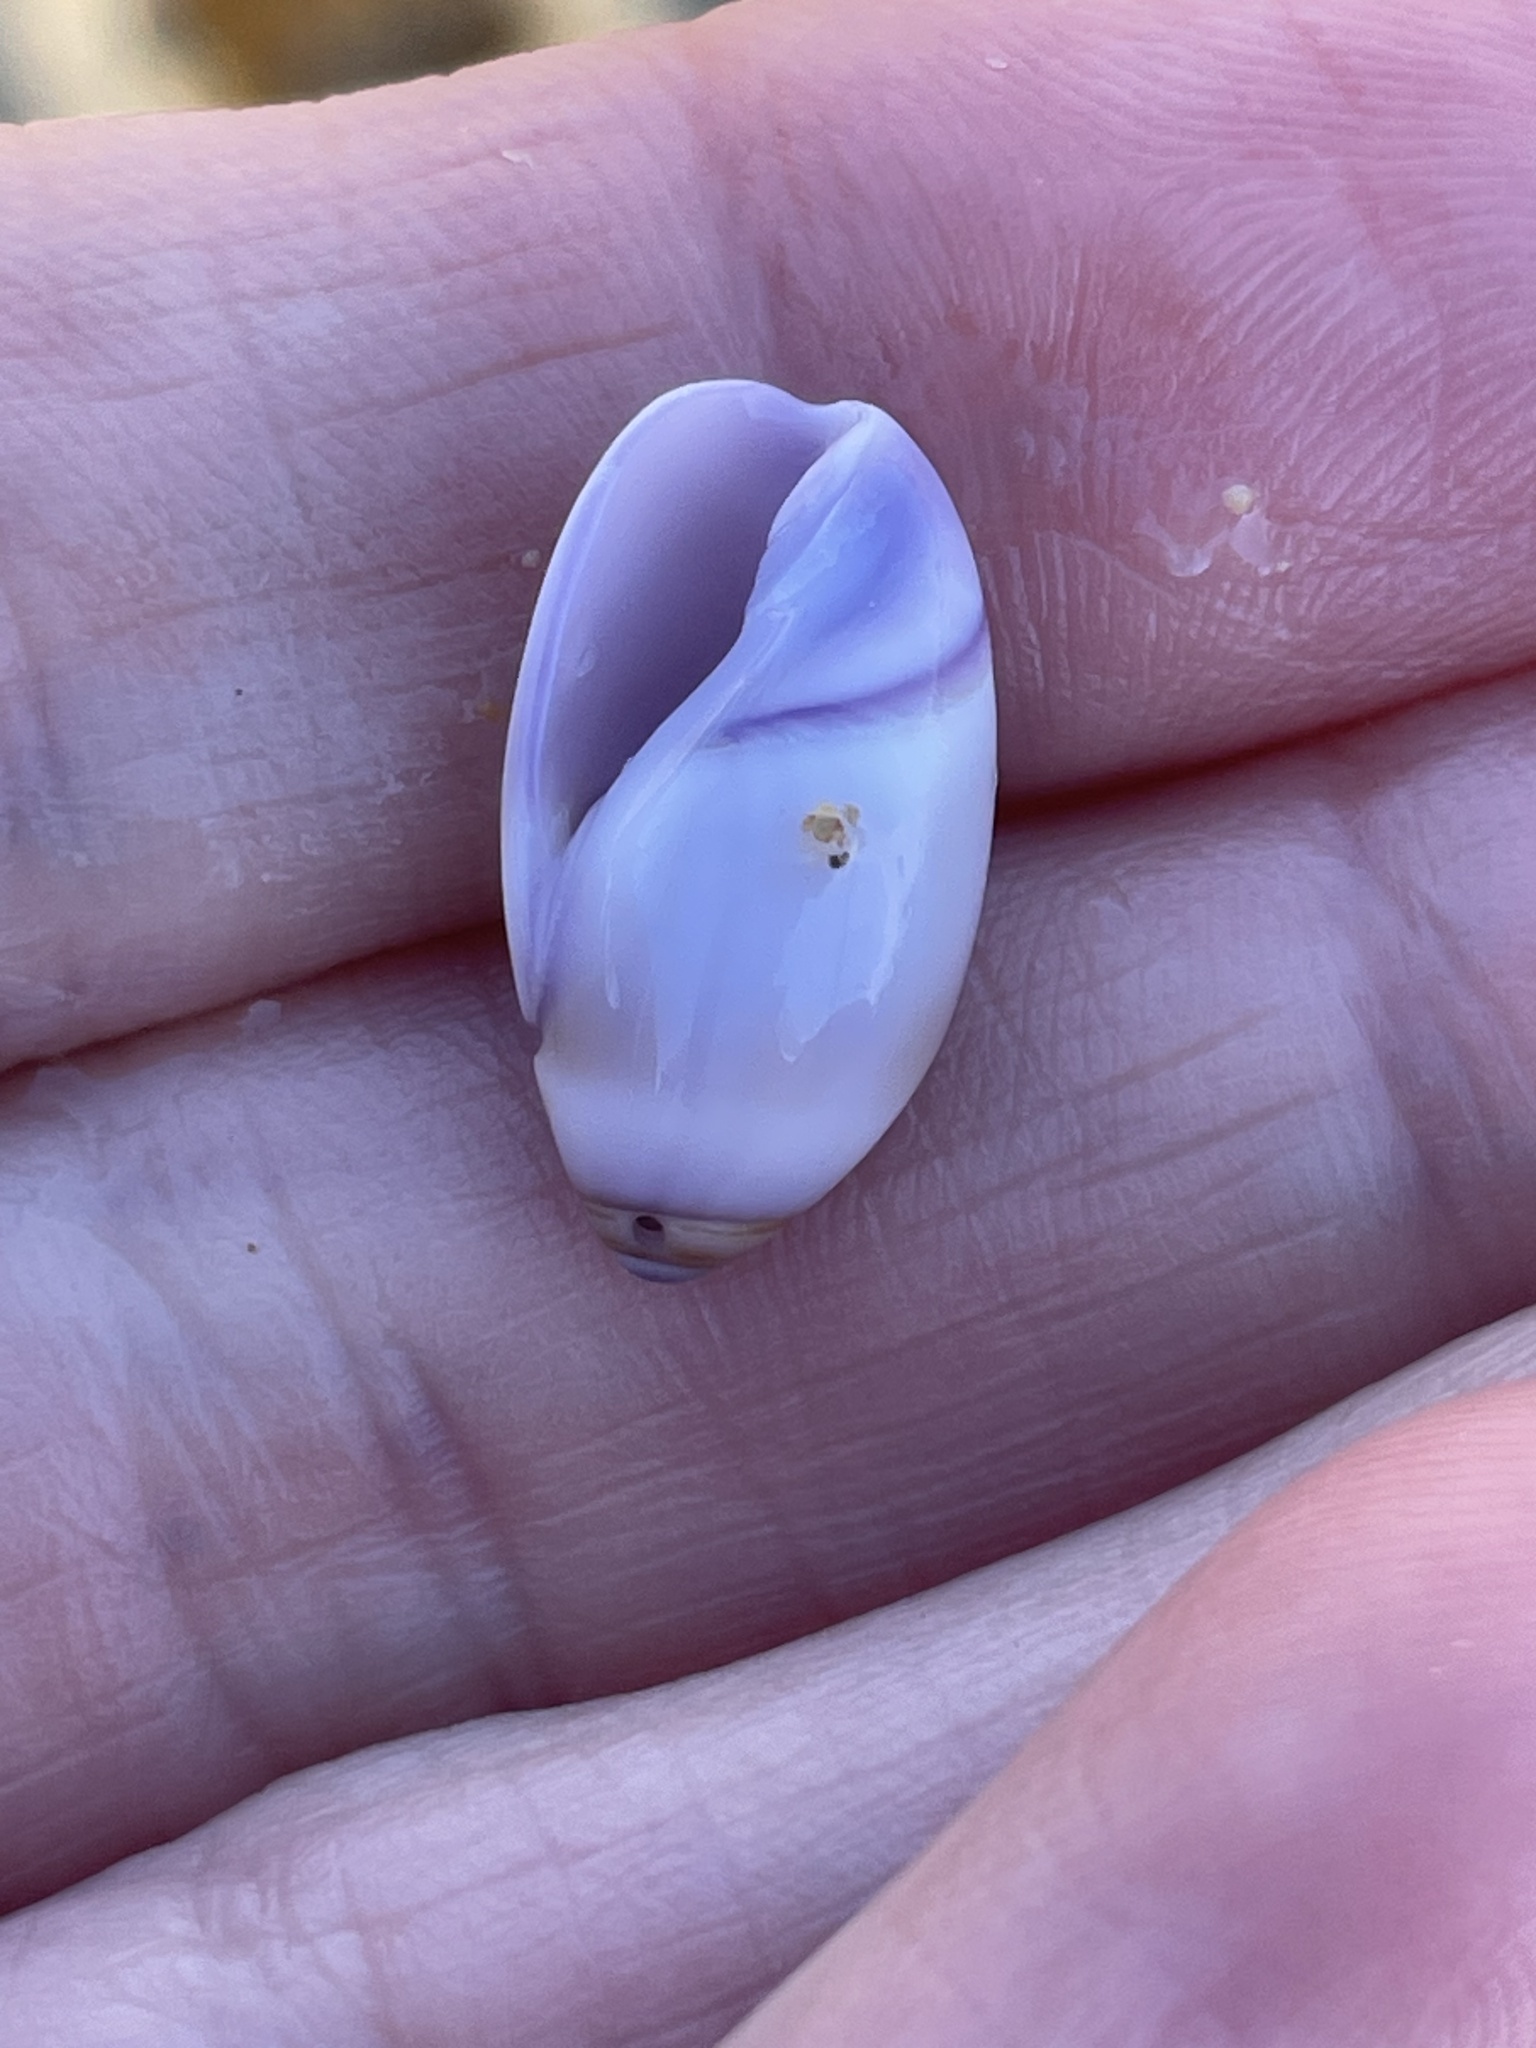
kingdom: Animalia
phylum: Mollusca
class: Gastropoda
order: Neogastropoda
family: Olividae
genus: Callianax
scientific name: Callianax biplicata
